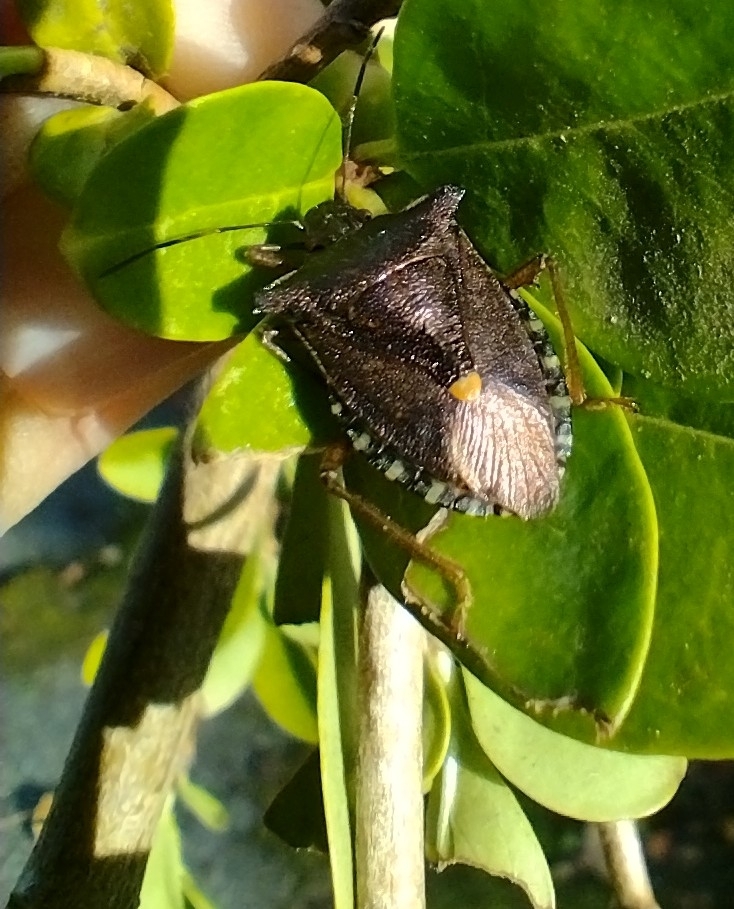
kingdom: Animalia
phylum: Arthropoda
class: Insecta
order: Hemiptera
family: Pentatomidae
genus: Pentatoma
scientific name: Pentatoma rufipes
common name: Forest bug
